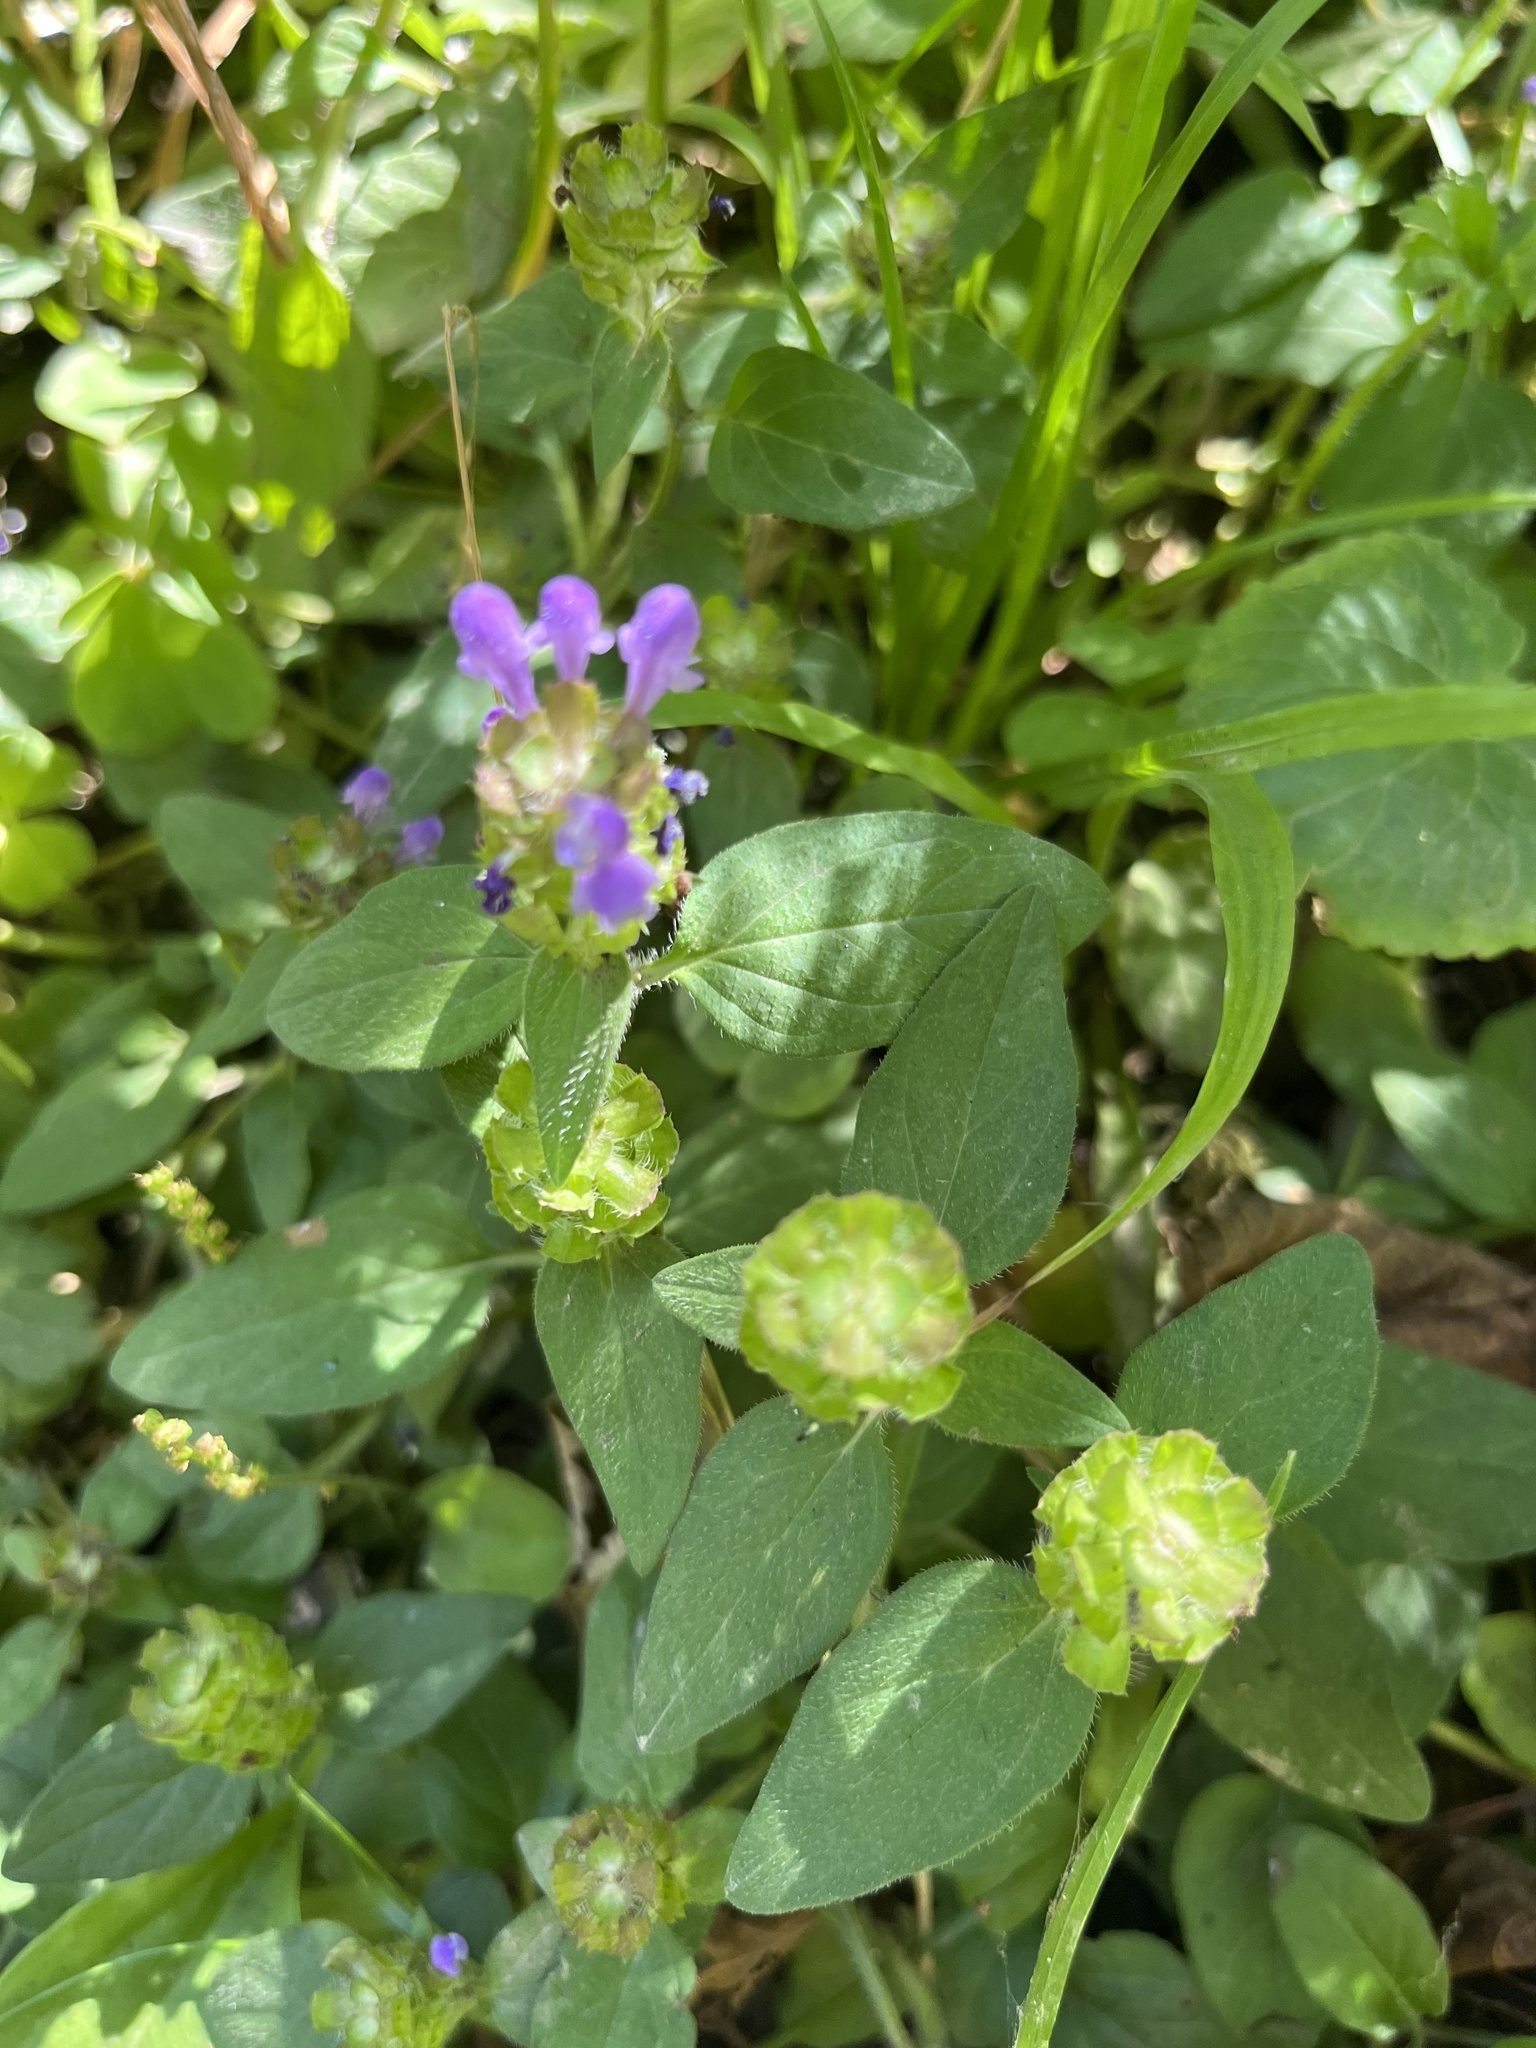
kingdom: Plantae
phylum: Tracheophyta
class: Magnoliopsida
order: Lamiales
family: Lamiaceae
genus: Prunella
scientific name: Prunella vulgaris
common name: Heal-all
